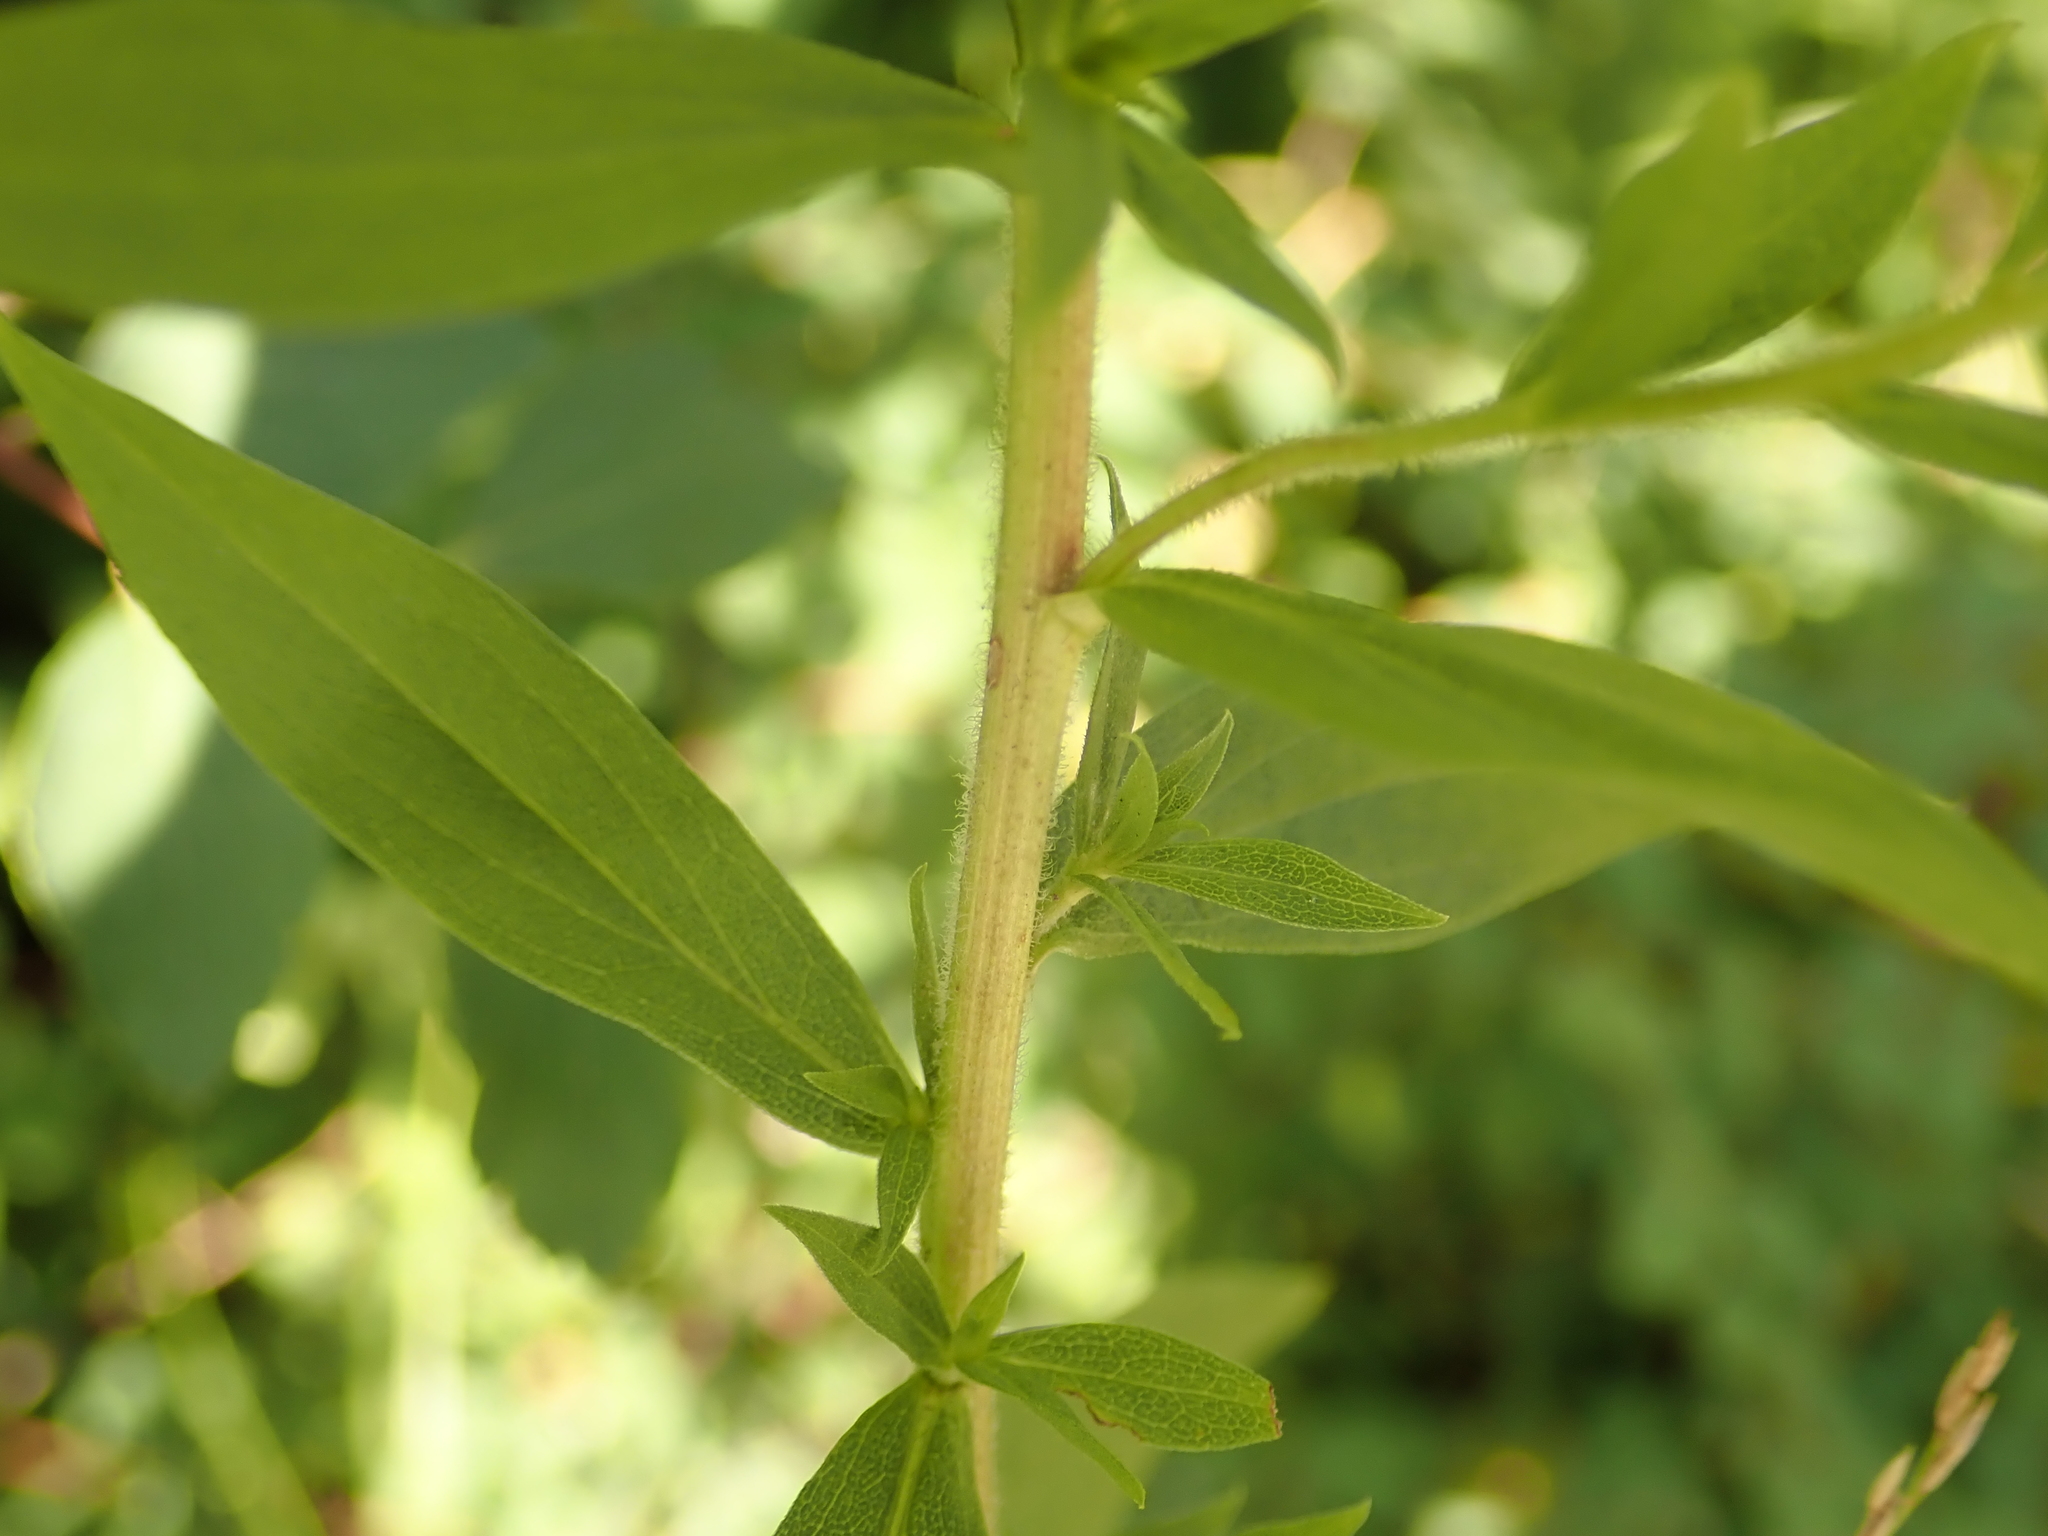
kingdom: Plantae
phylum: Tracheophyta
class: Magnoliopsida
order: Asterales
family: Asteraceae
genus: Solidago
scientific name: Solidago canadensis
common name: Canada goldenrod
